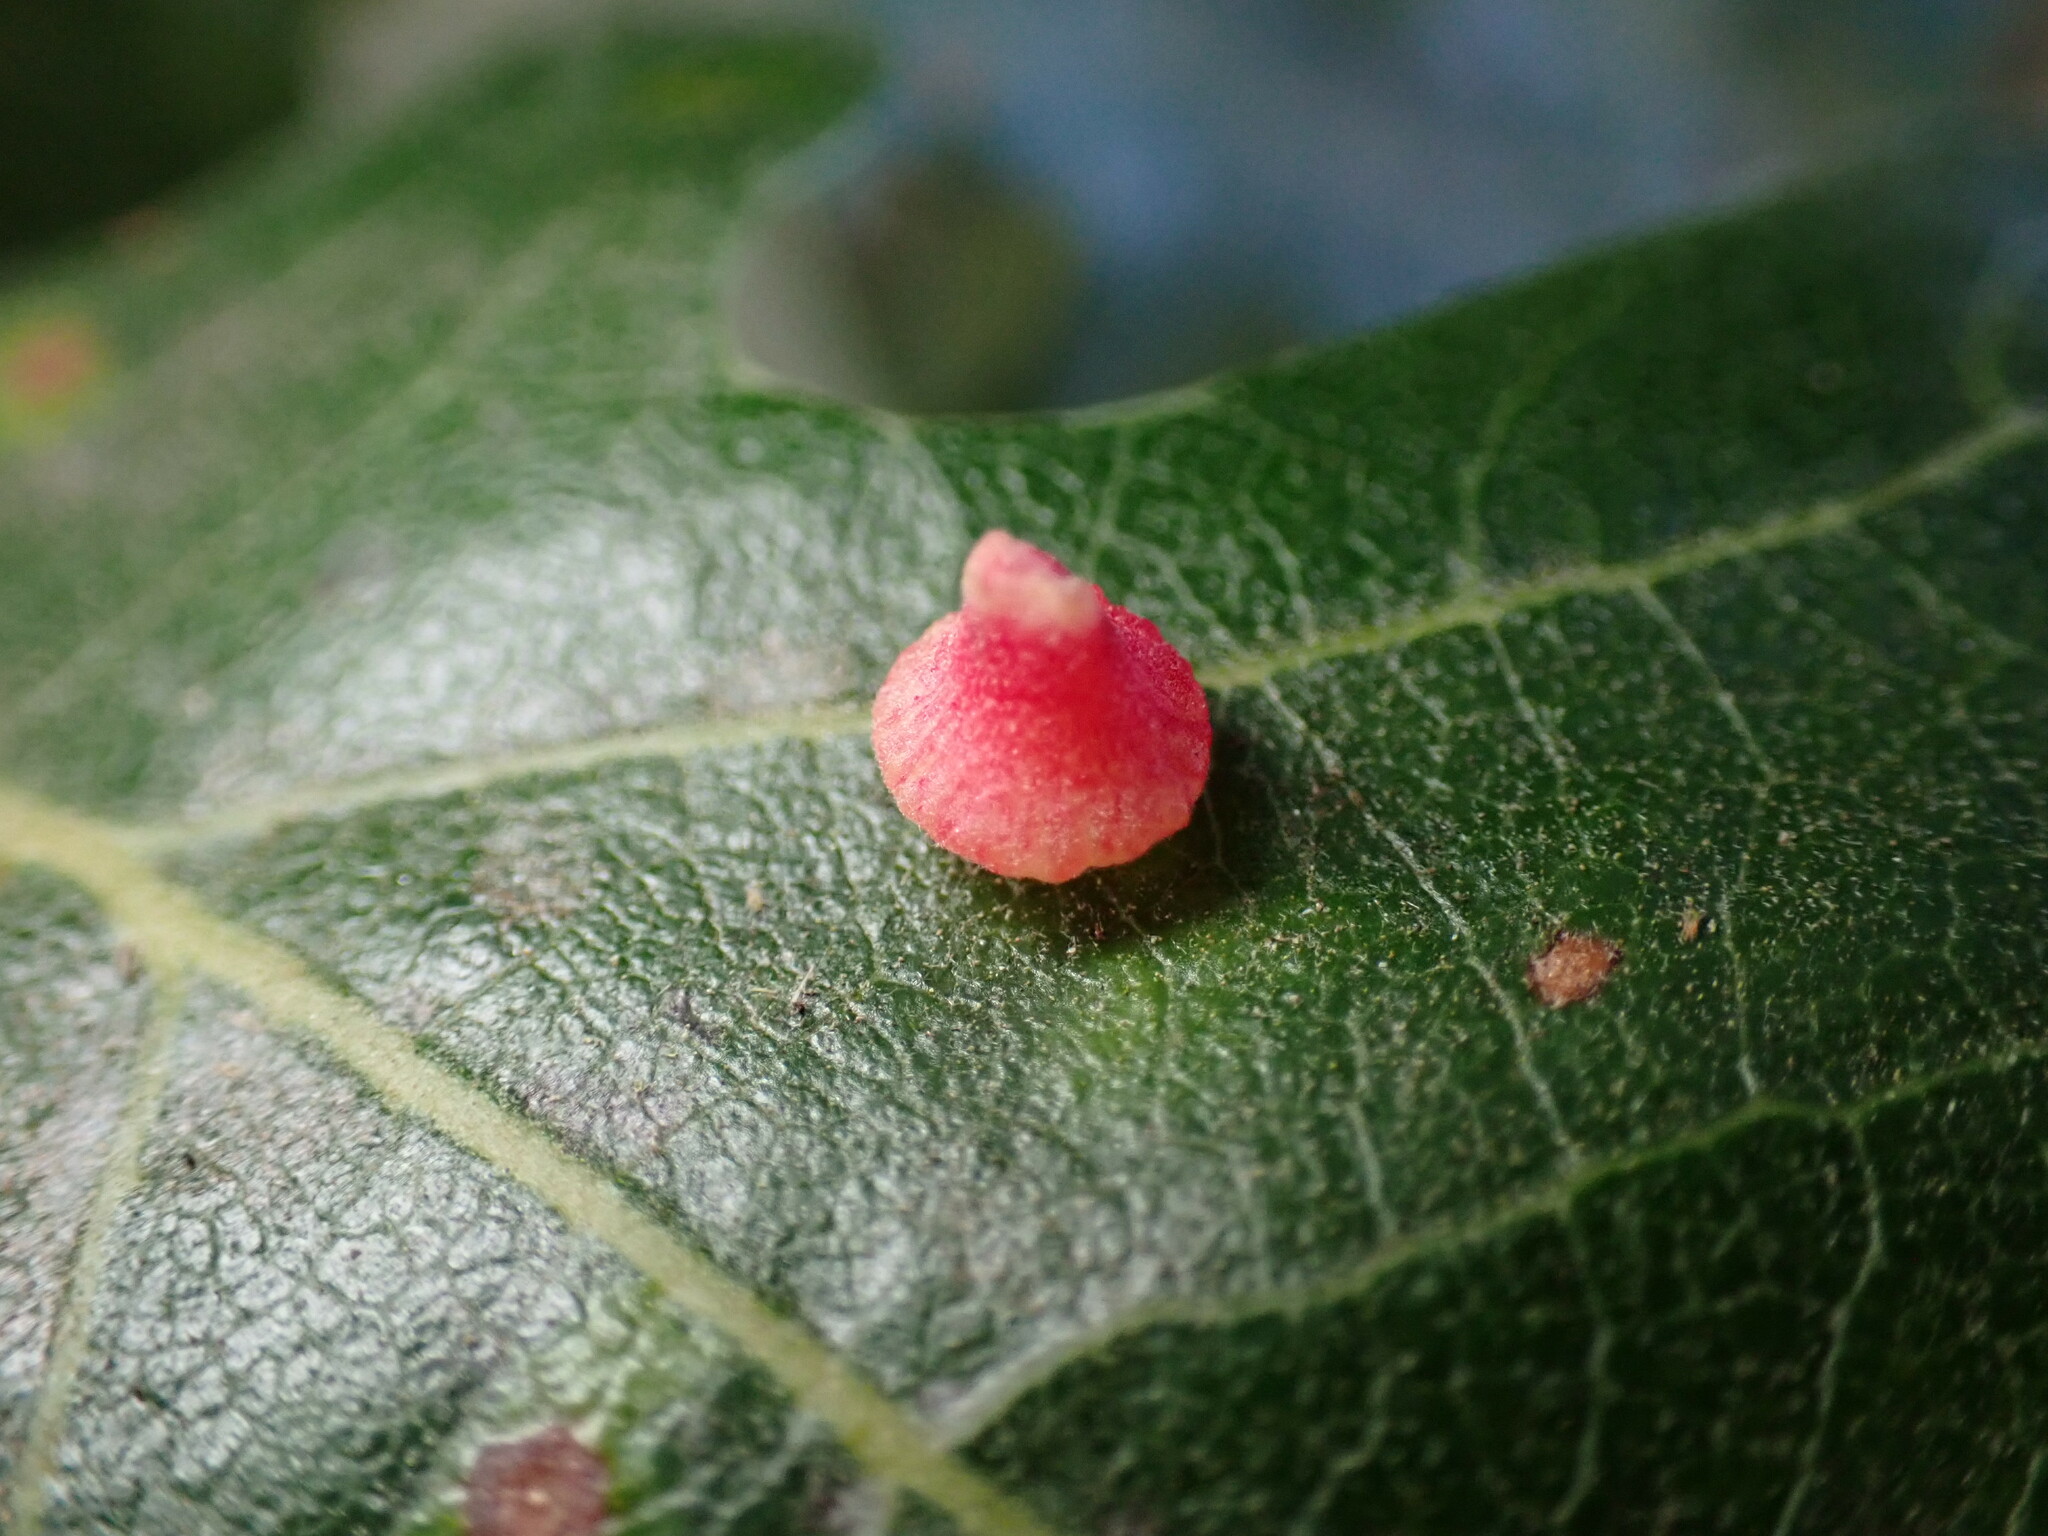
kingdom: Animalia
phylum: Arthropoda
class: Insecta
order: Hymenoptera
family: Cynipidae
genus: Andricus
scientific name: Andricus
